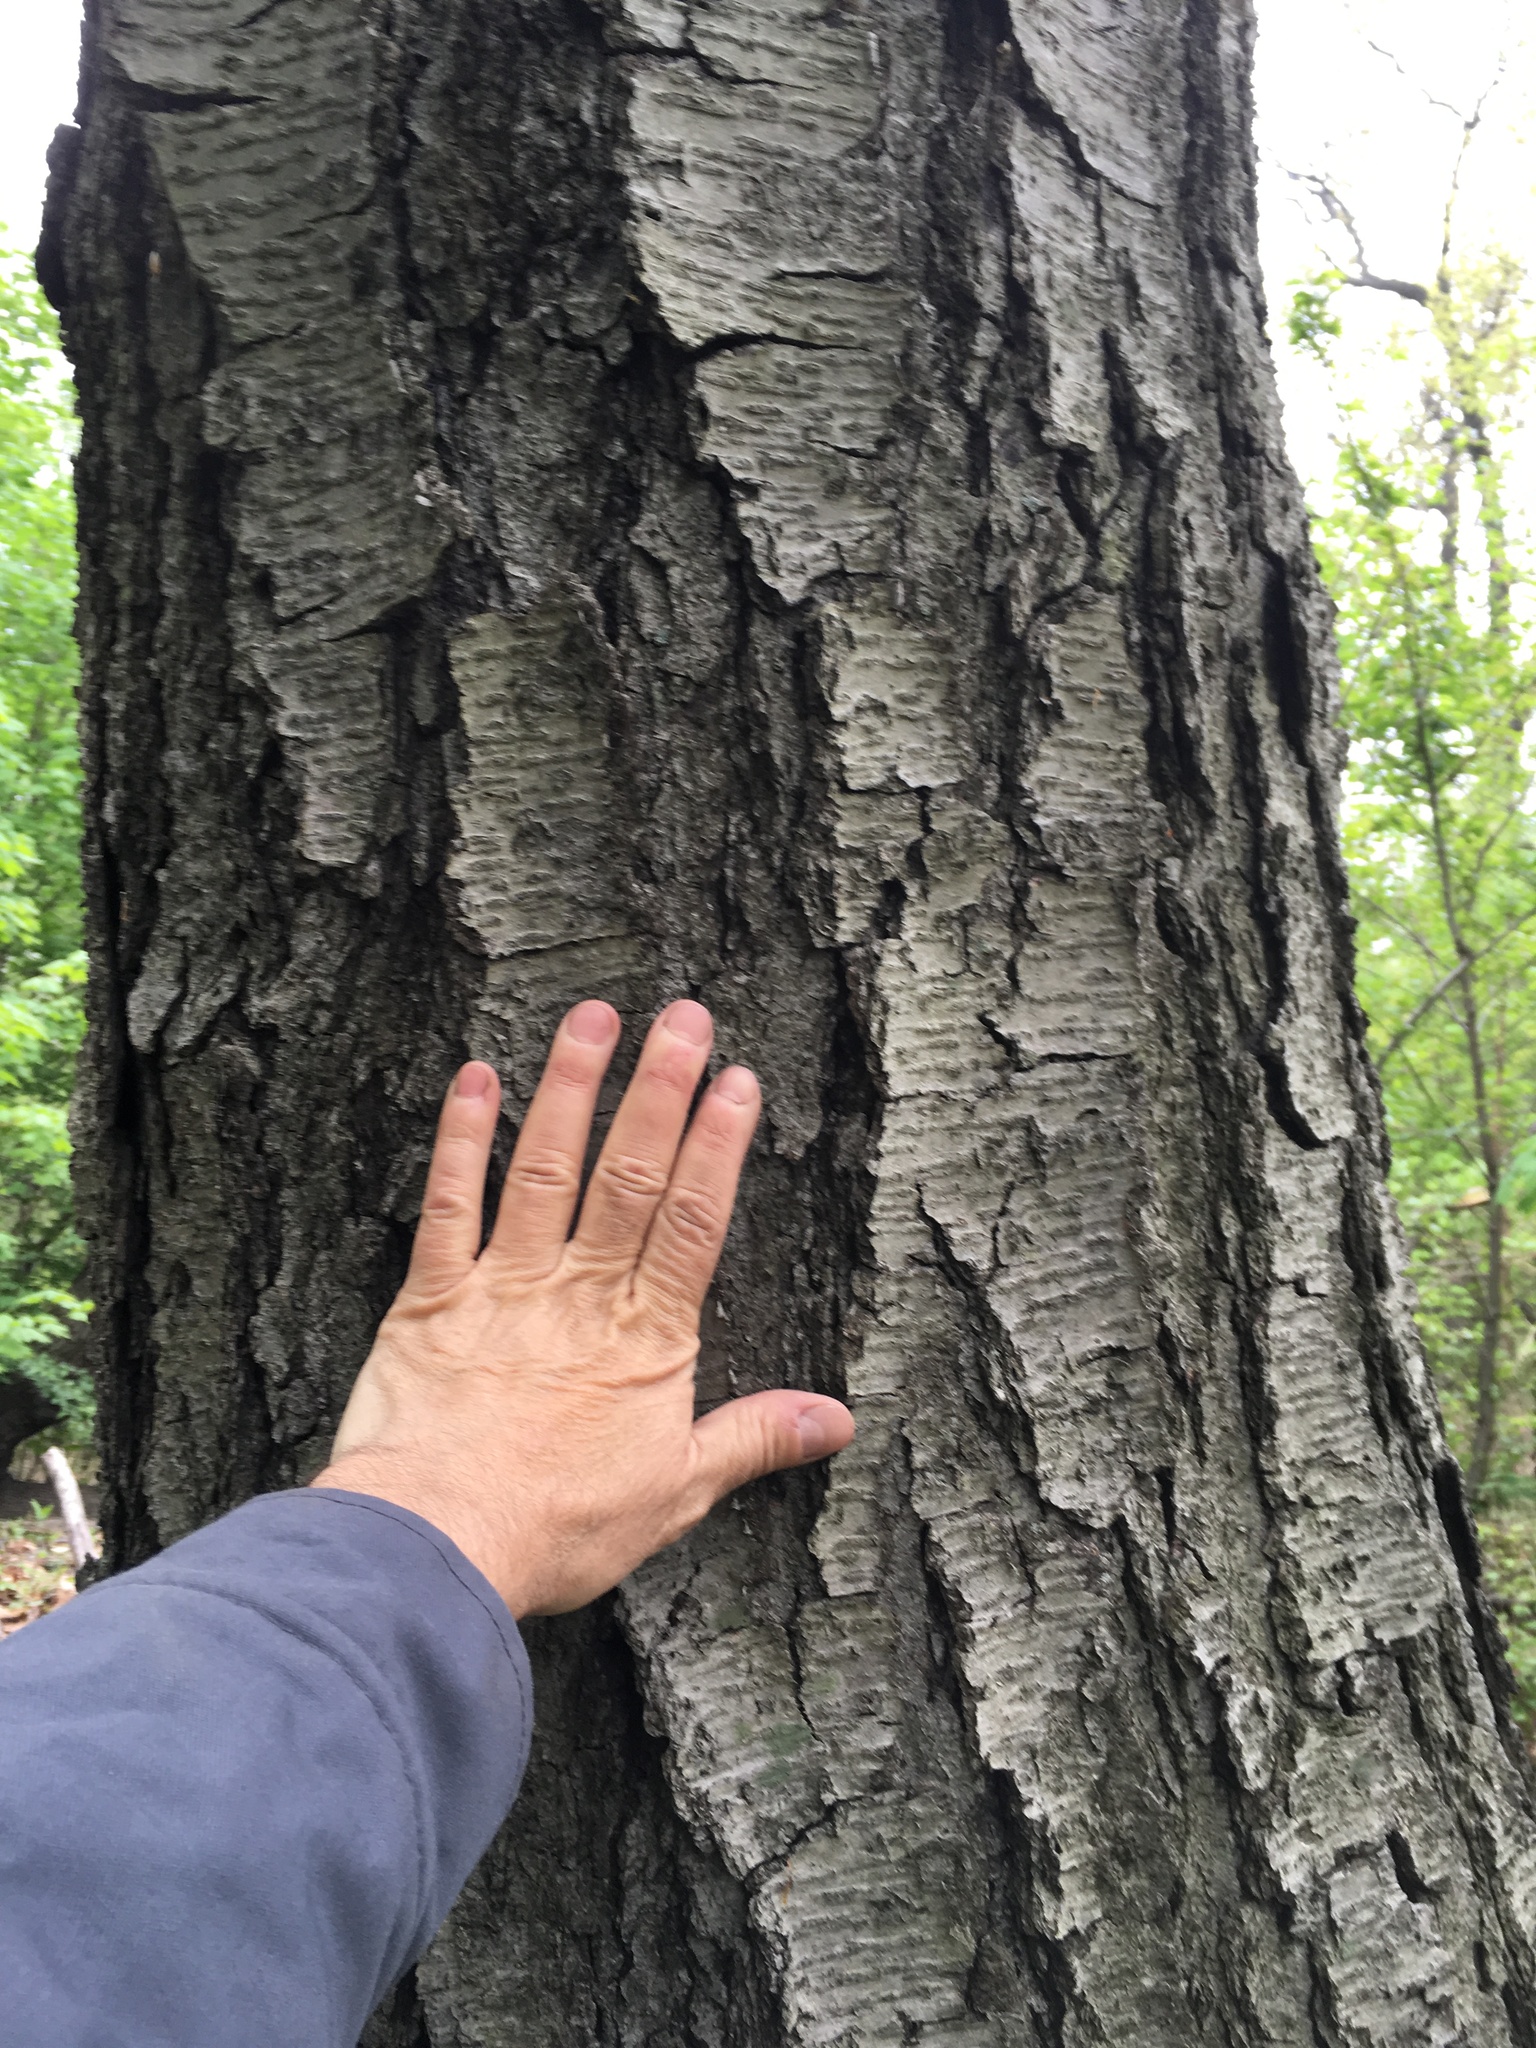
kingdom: Plantae
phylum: Tracheophyta
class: Magnoliopsida
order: Fagales
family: Betulaceae
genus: Betula
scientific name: Betula lenta
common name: Black birch
